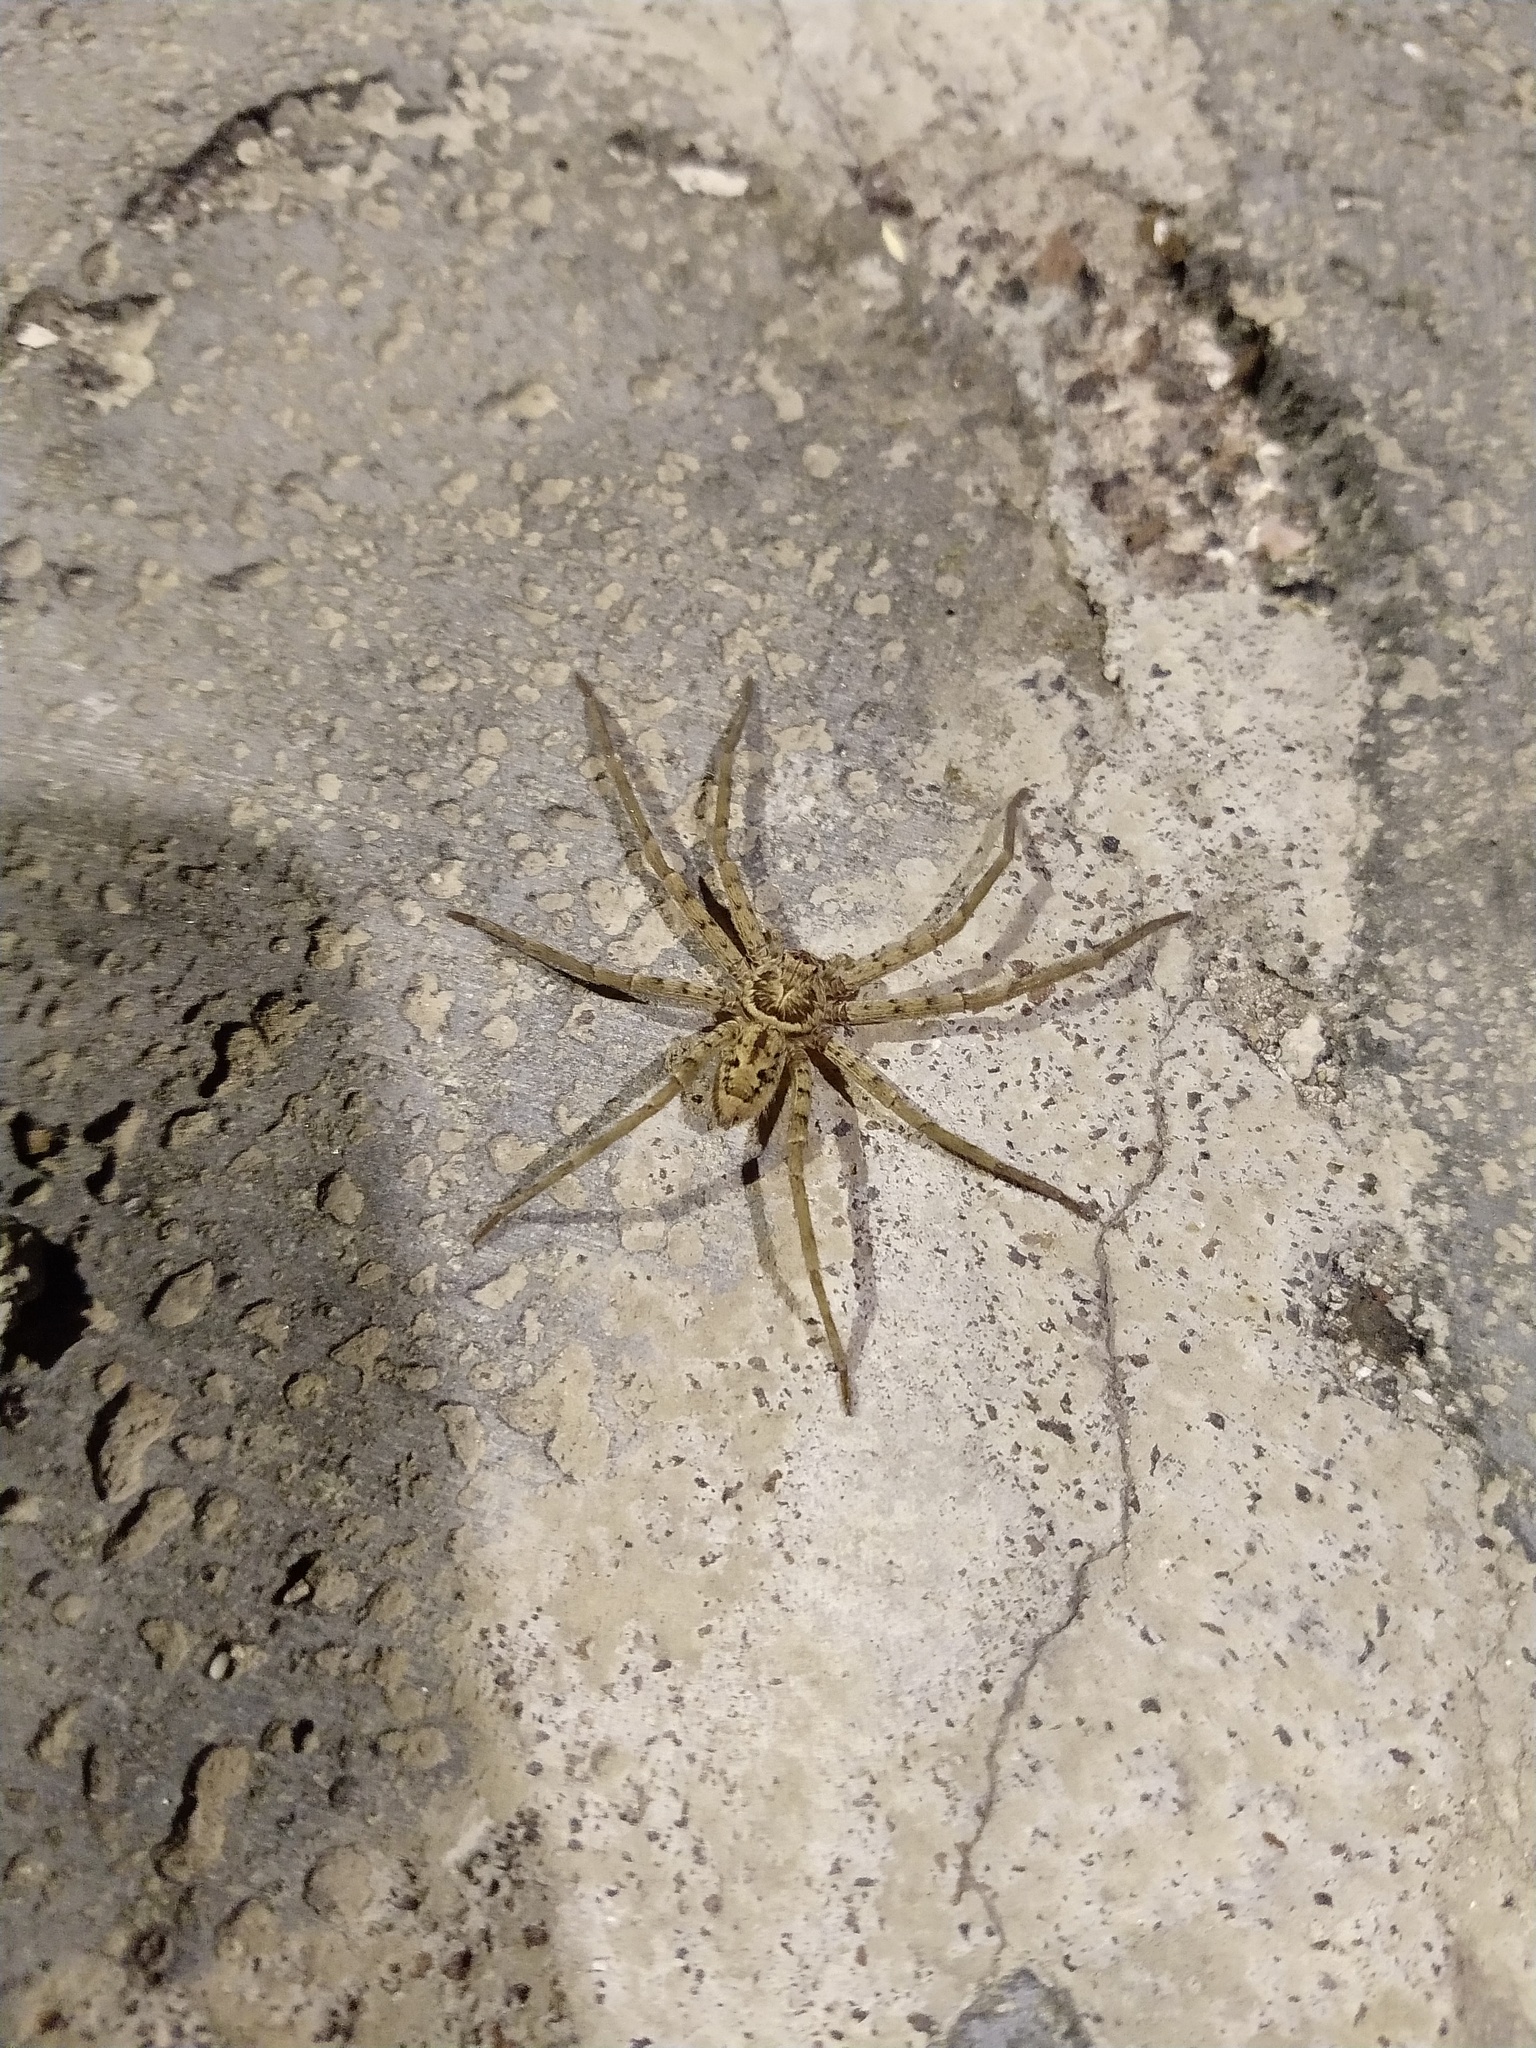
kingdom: Animalia
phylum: Arthropoda
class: Arachnida
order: Araneae
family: Sparassidae
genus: Heteropoda
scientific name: Heteropoda venatoria
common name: Huntsman spider
